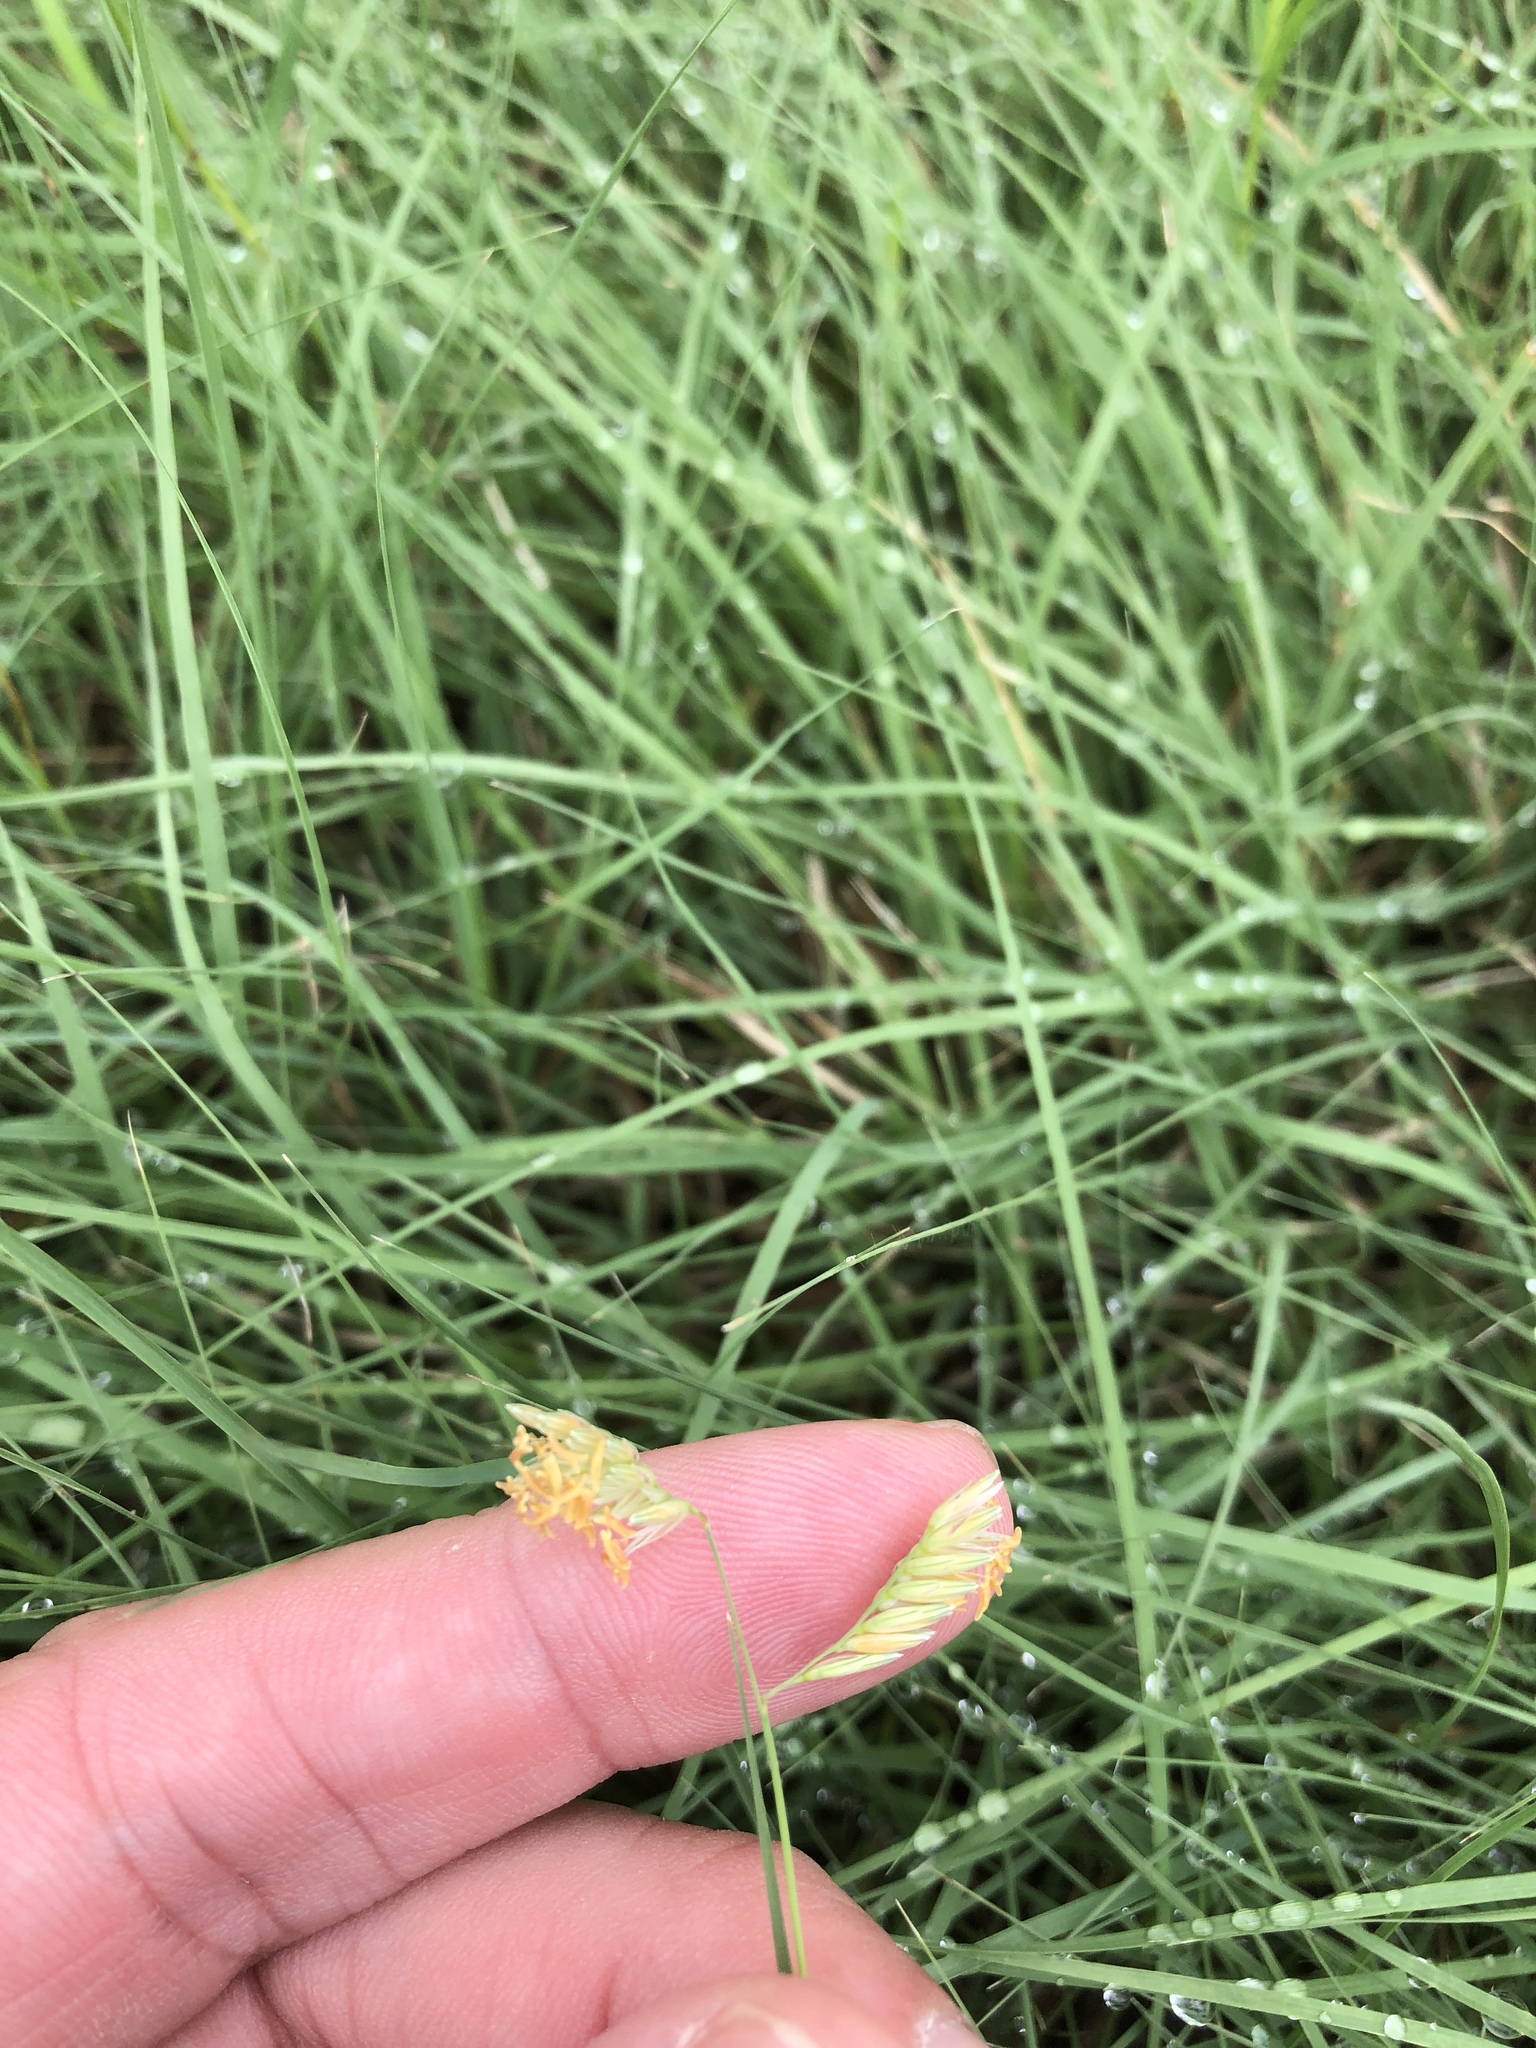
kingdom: Plantae
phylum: Tracheophyta
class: Liliopsida
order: Poales
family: Poaceae
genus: Bouteloua
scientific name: Bouteloua dactyloides
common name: Buffalo grass
